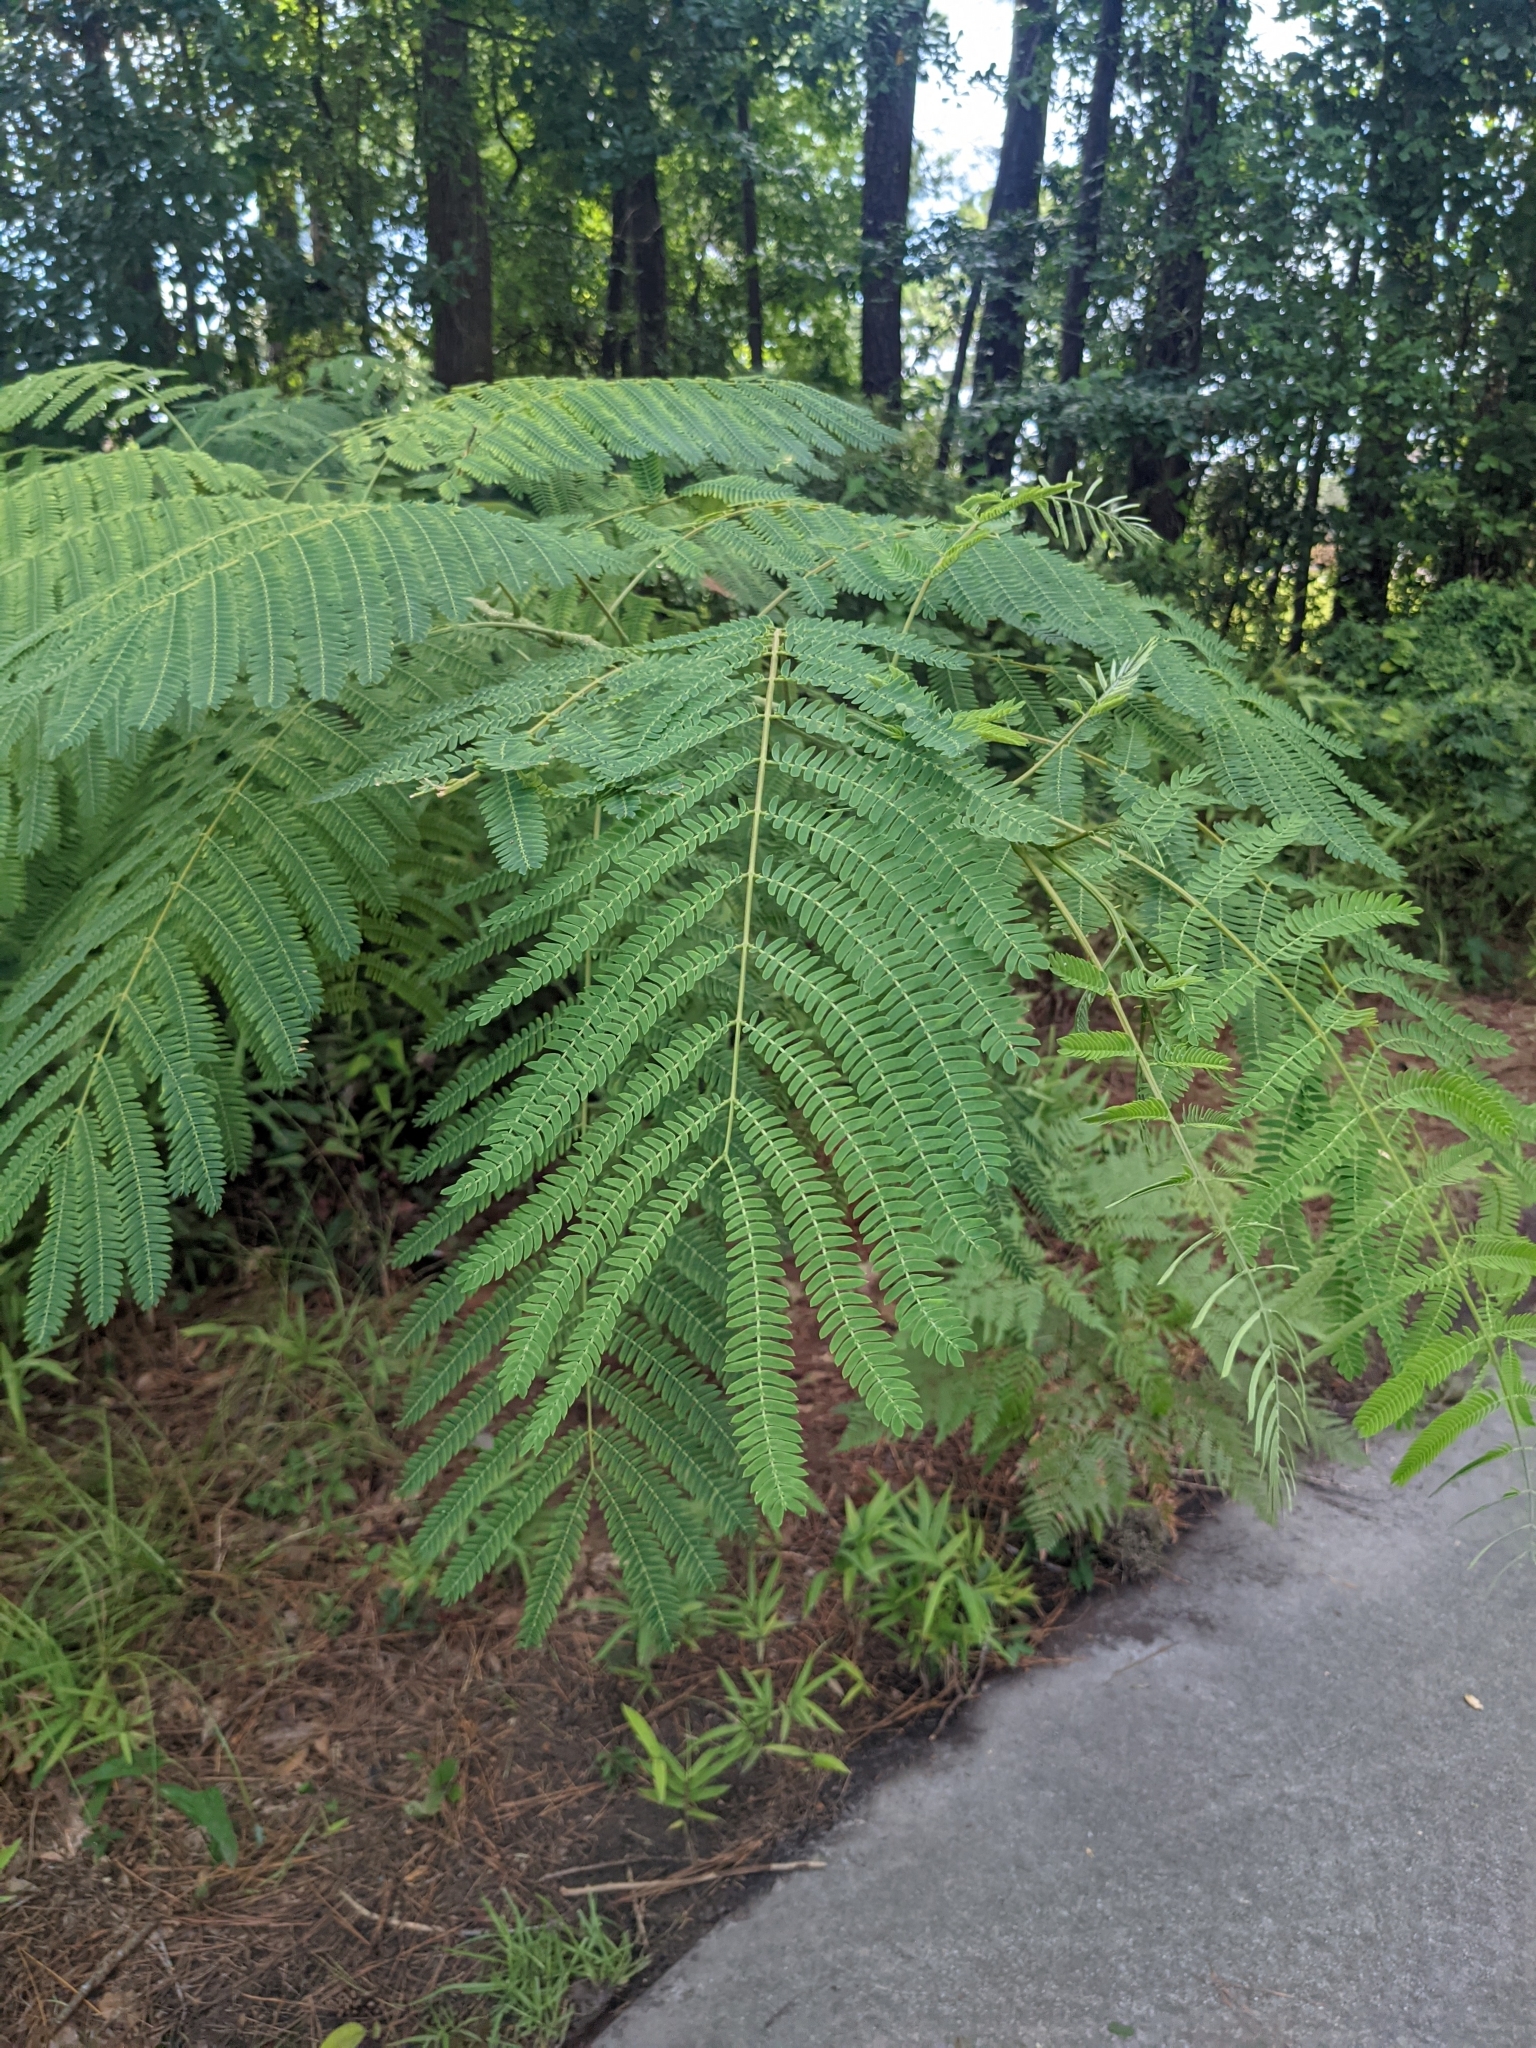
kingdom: Plantae
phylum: Tracheophyta
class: Magnoliopsida
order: Fabales
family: Fabaceae
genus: Albizia
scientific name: Albizia julibrissin
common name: Silktree
